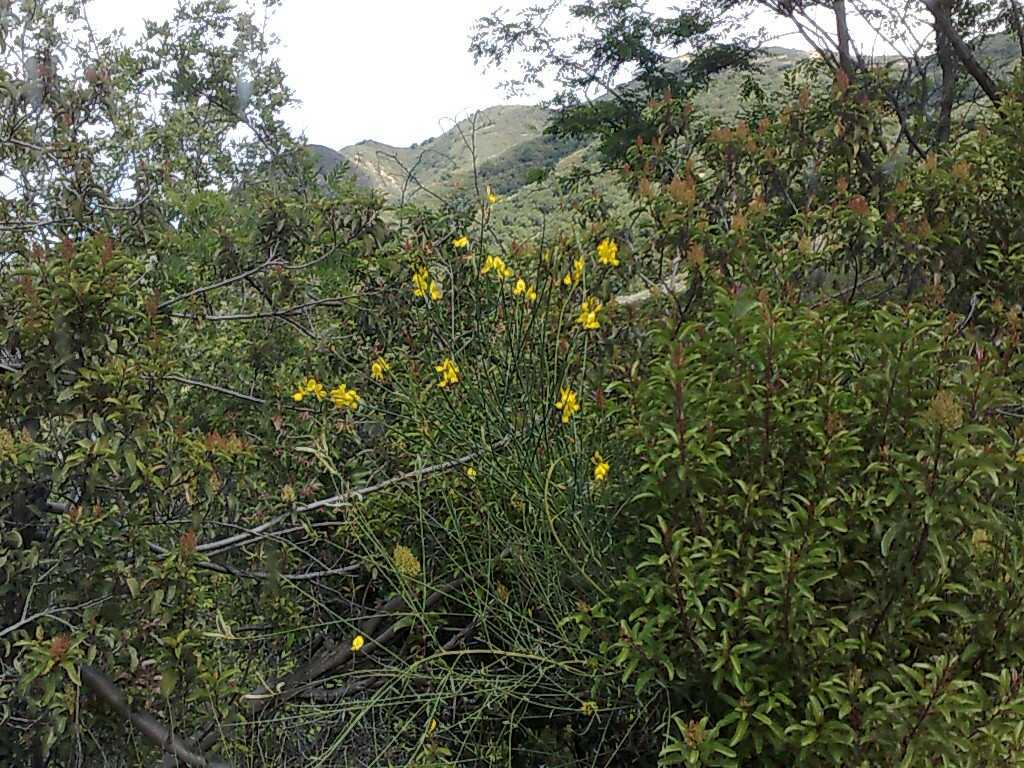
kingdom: Plantae
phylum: Tracheophyta
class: Magnoliopsida
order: Sapindales
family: Anacardiaceae
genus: Malosma
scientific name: Malosma laurina
